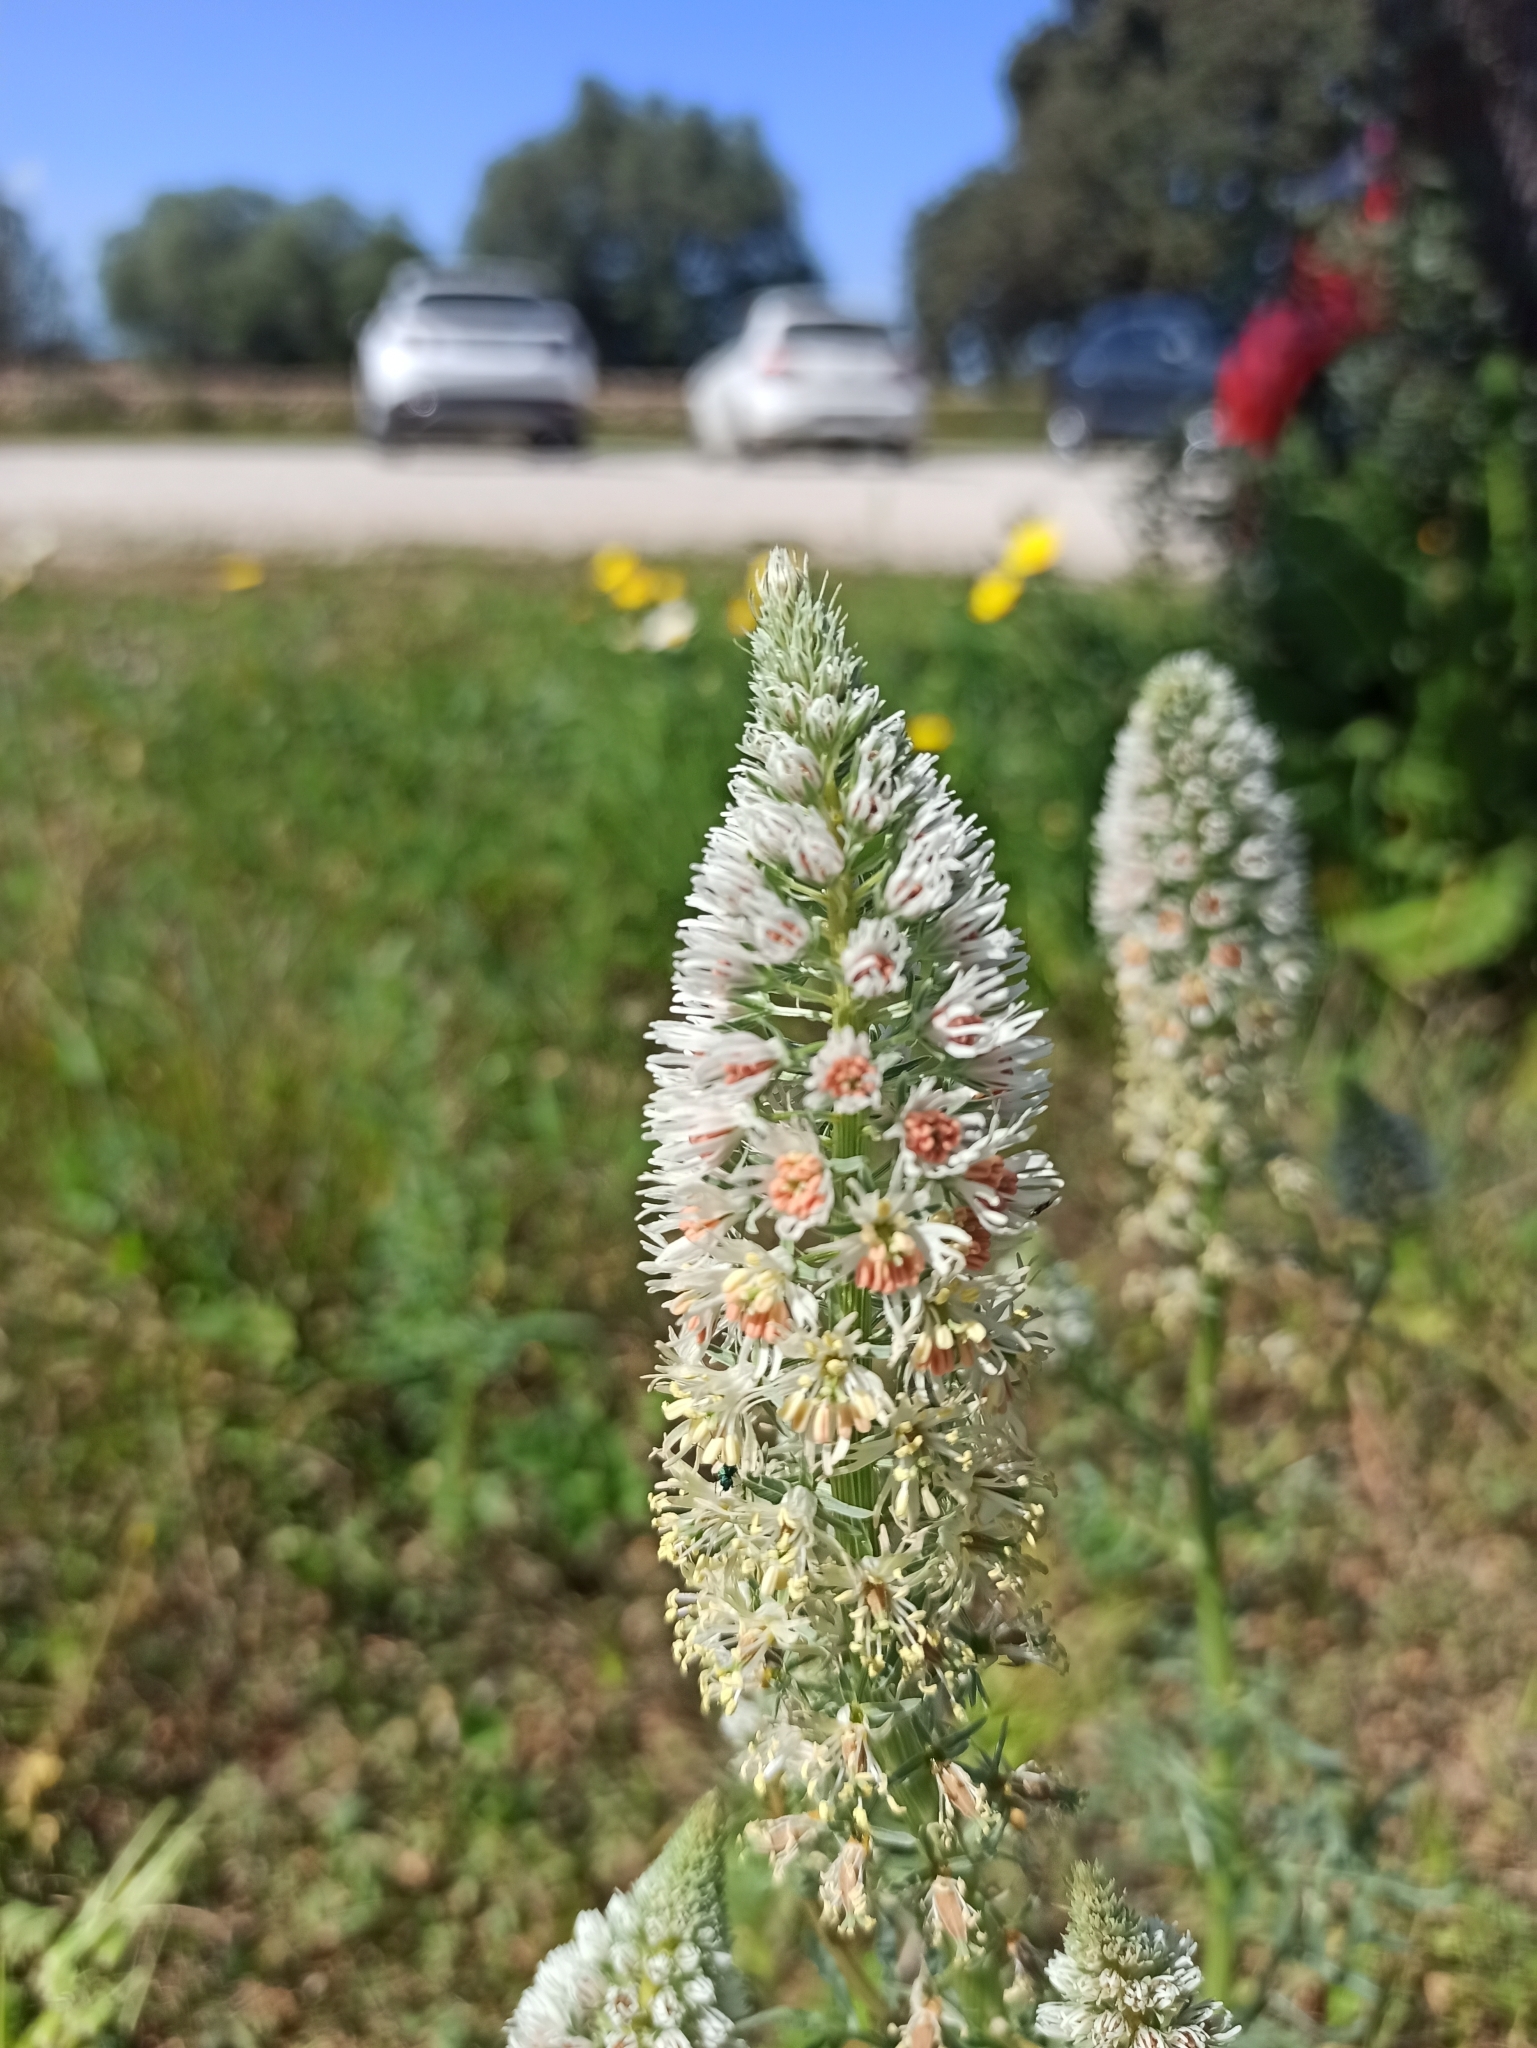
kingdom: Plantae
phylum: Tracheophyta
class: Magnoliopsida
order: Brassicales
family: Resedaceae
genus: Reseda
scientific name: Reseda alba
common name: White mignonette
